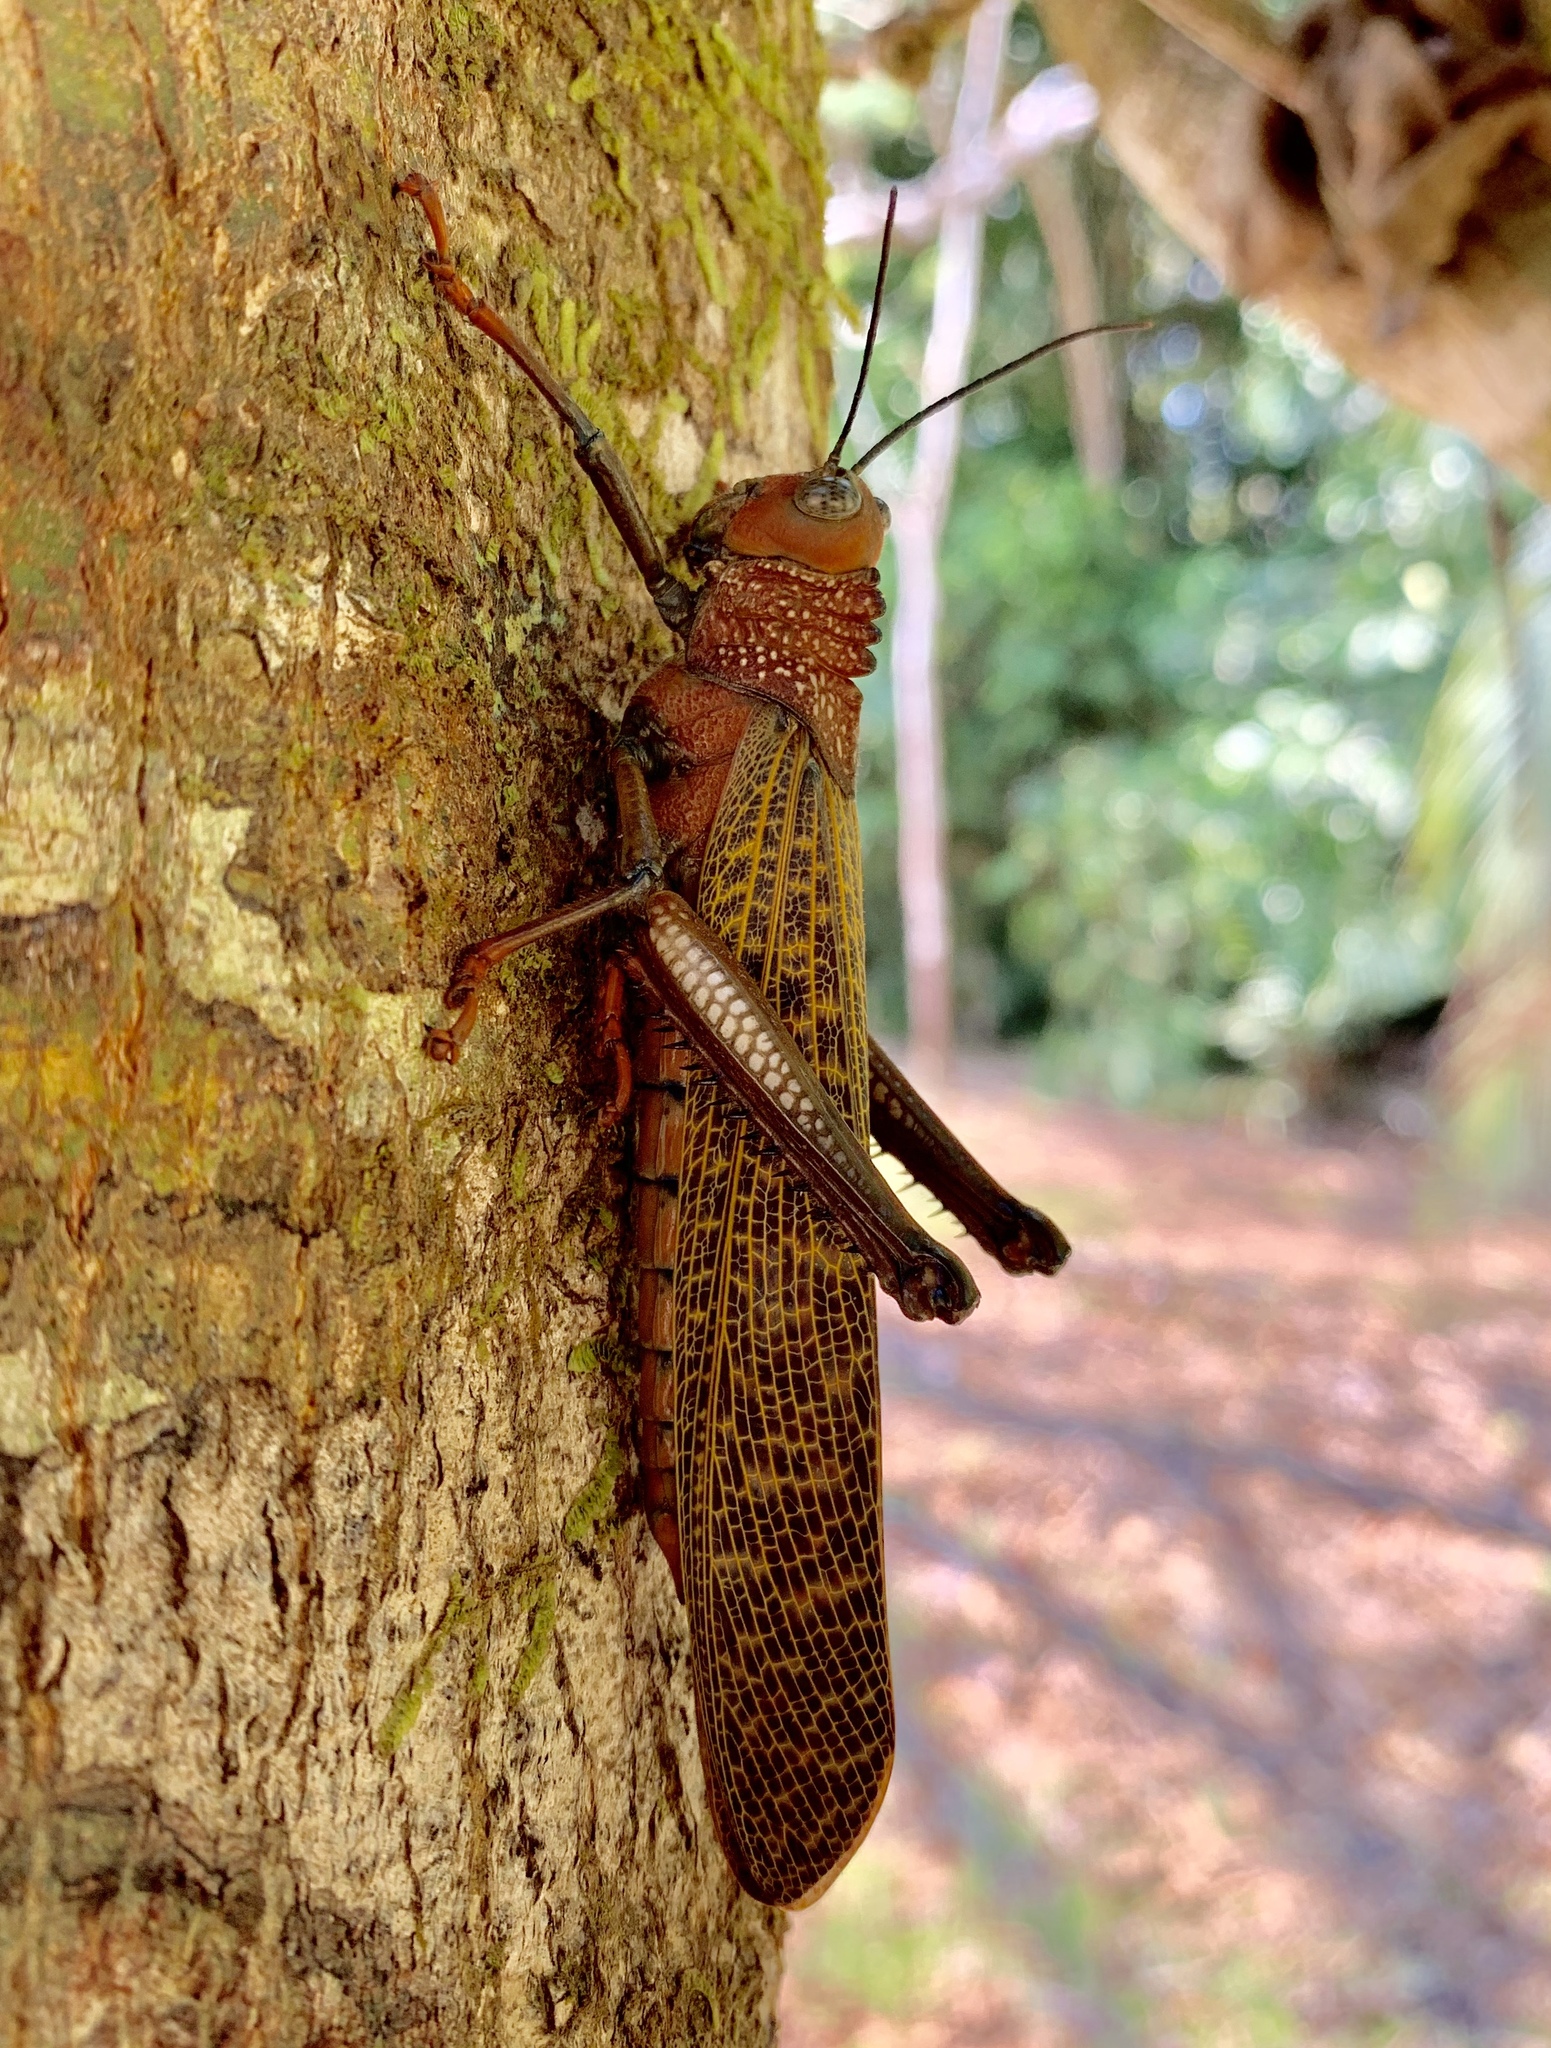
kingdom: Animalia
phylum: Arthropoda
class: Insecta
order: Orthoptera
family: Romaleidae
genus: Tropidacris
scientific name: Tropidacris cristata
